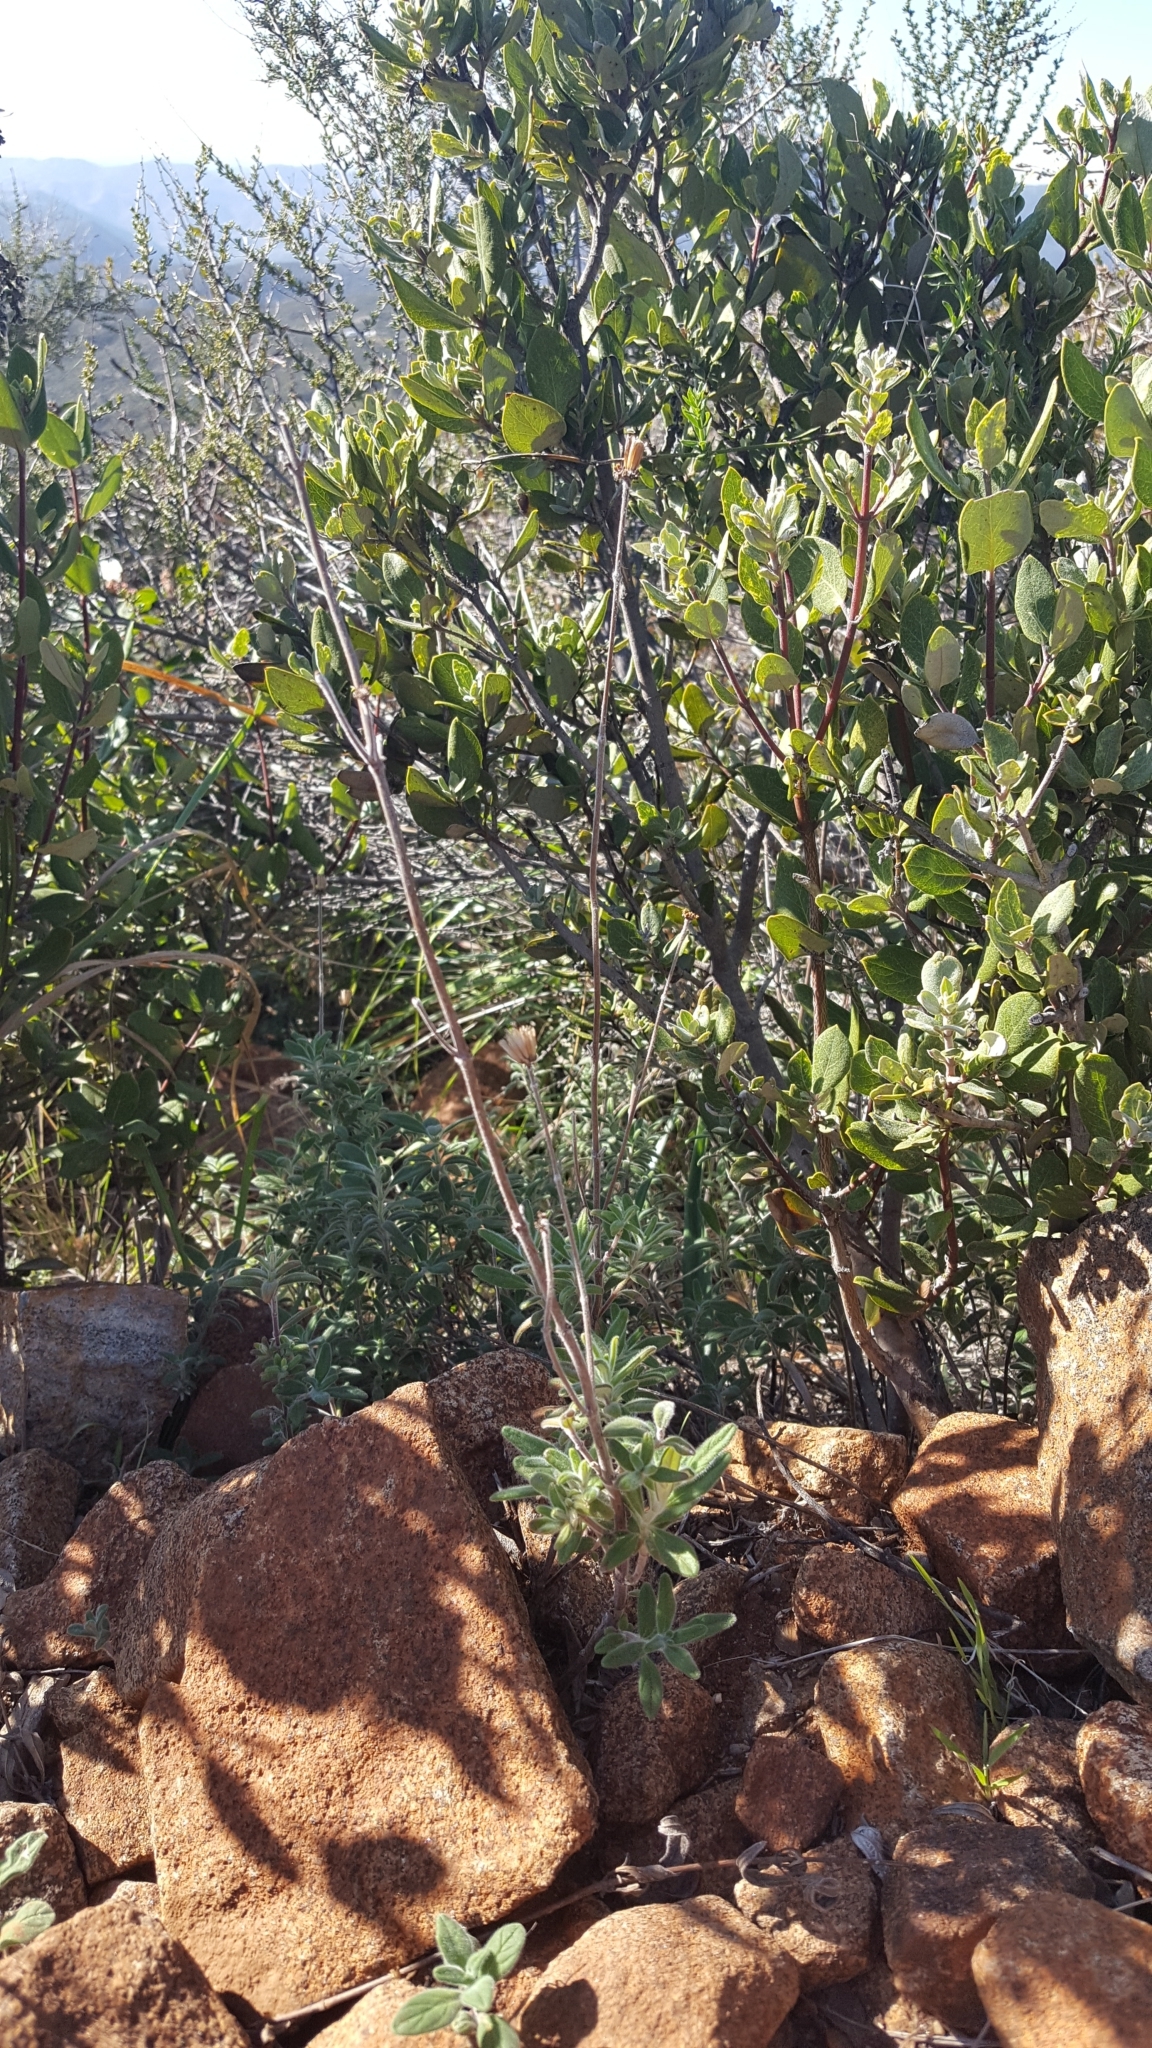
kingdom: Plantae
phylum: Tracheophyta
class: Magnoliopsida
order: Lamiales
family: Lamiaceae
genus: Monardella
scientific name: Monardella hypoleuca
